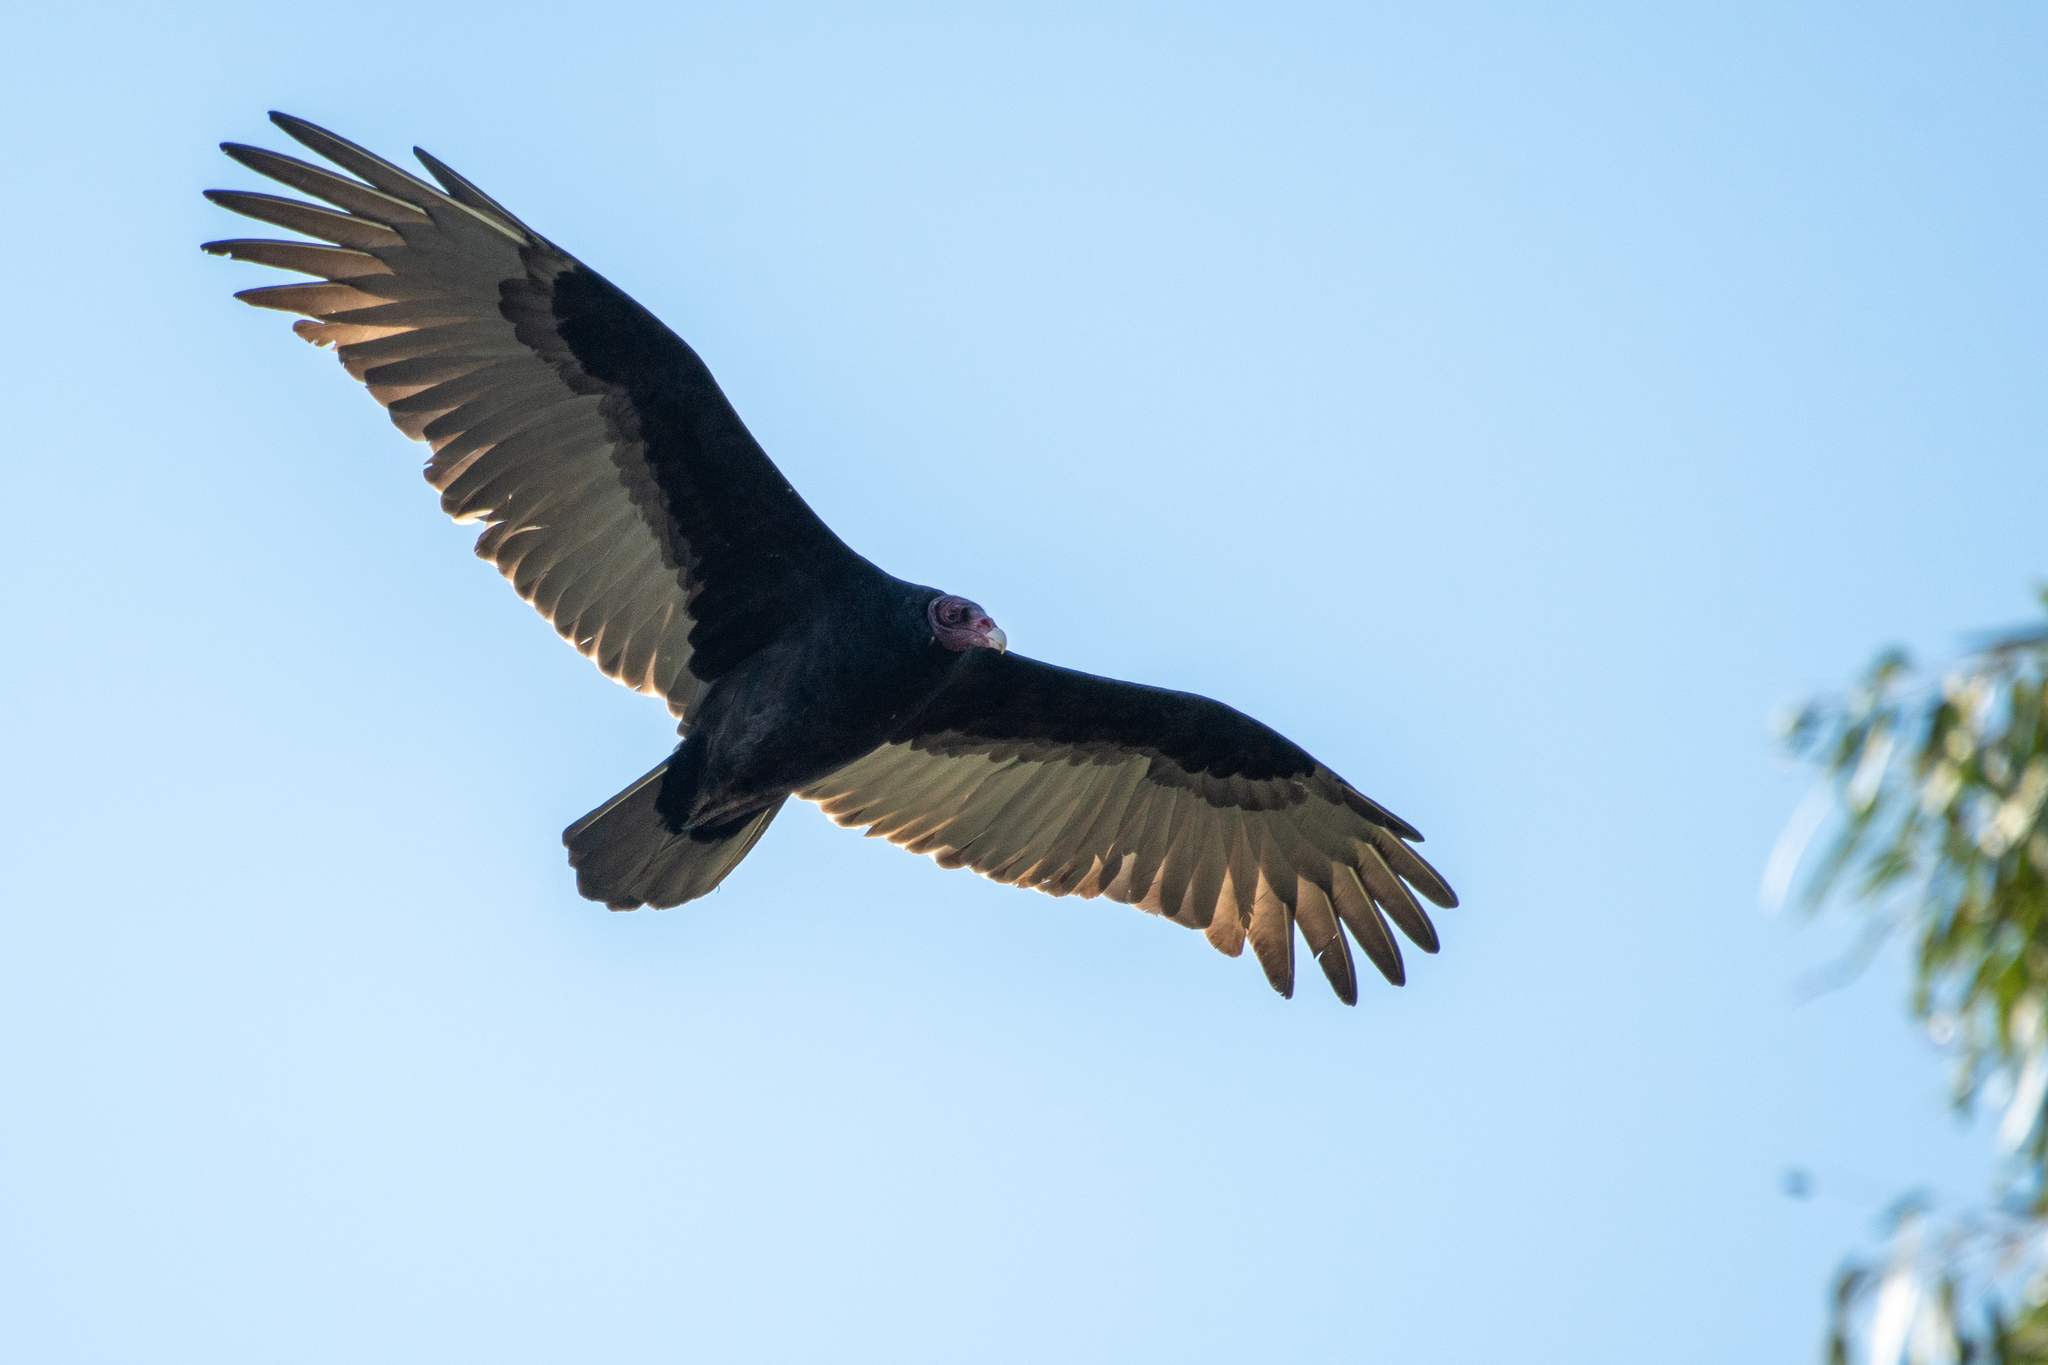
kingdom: Animalia
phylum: Chordata
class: Aves
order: Accipitriformes
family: Cathartidae
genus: Cathartes
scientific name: Cathartes aura
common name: Turkey vulture
